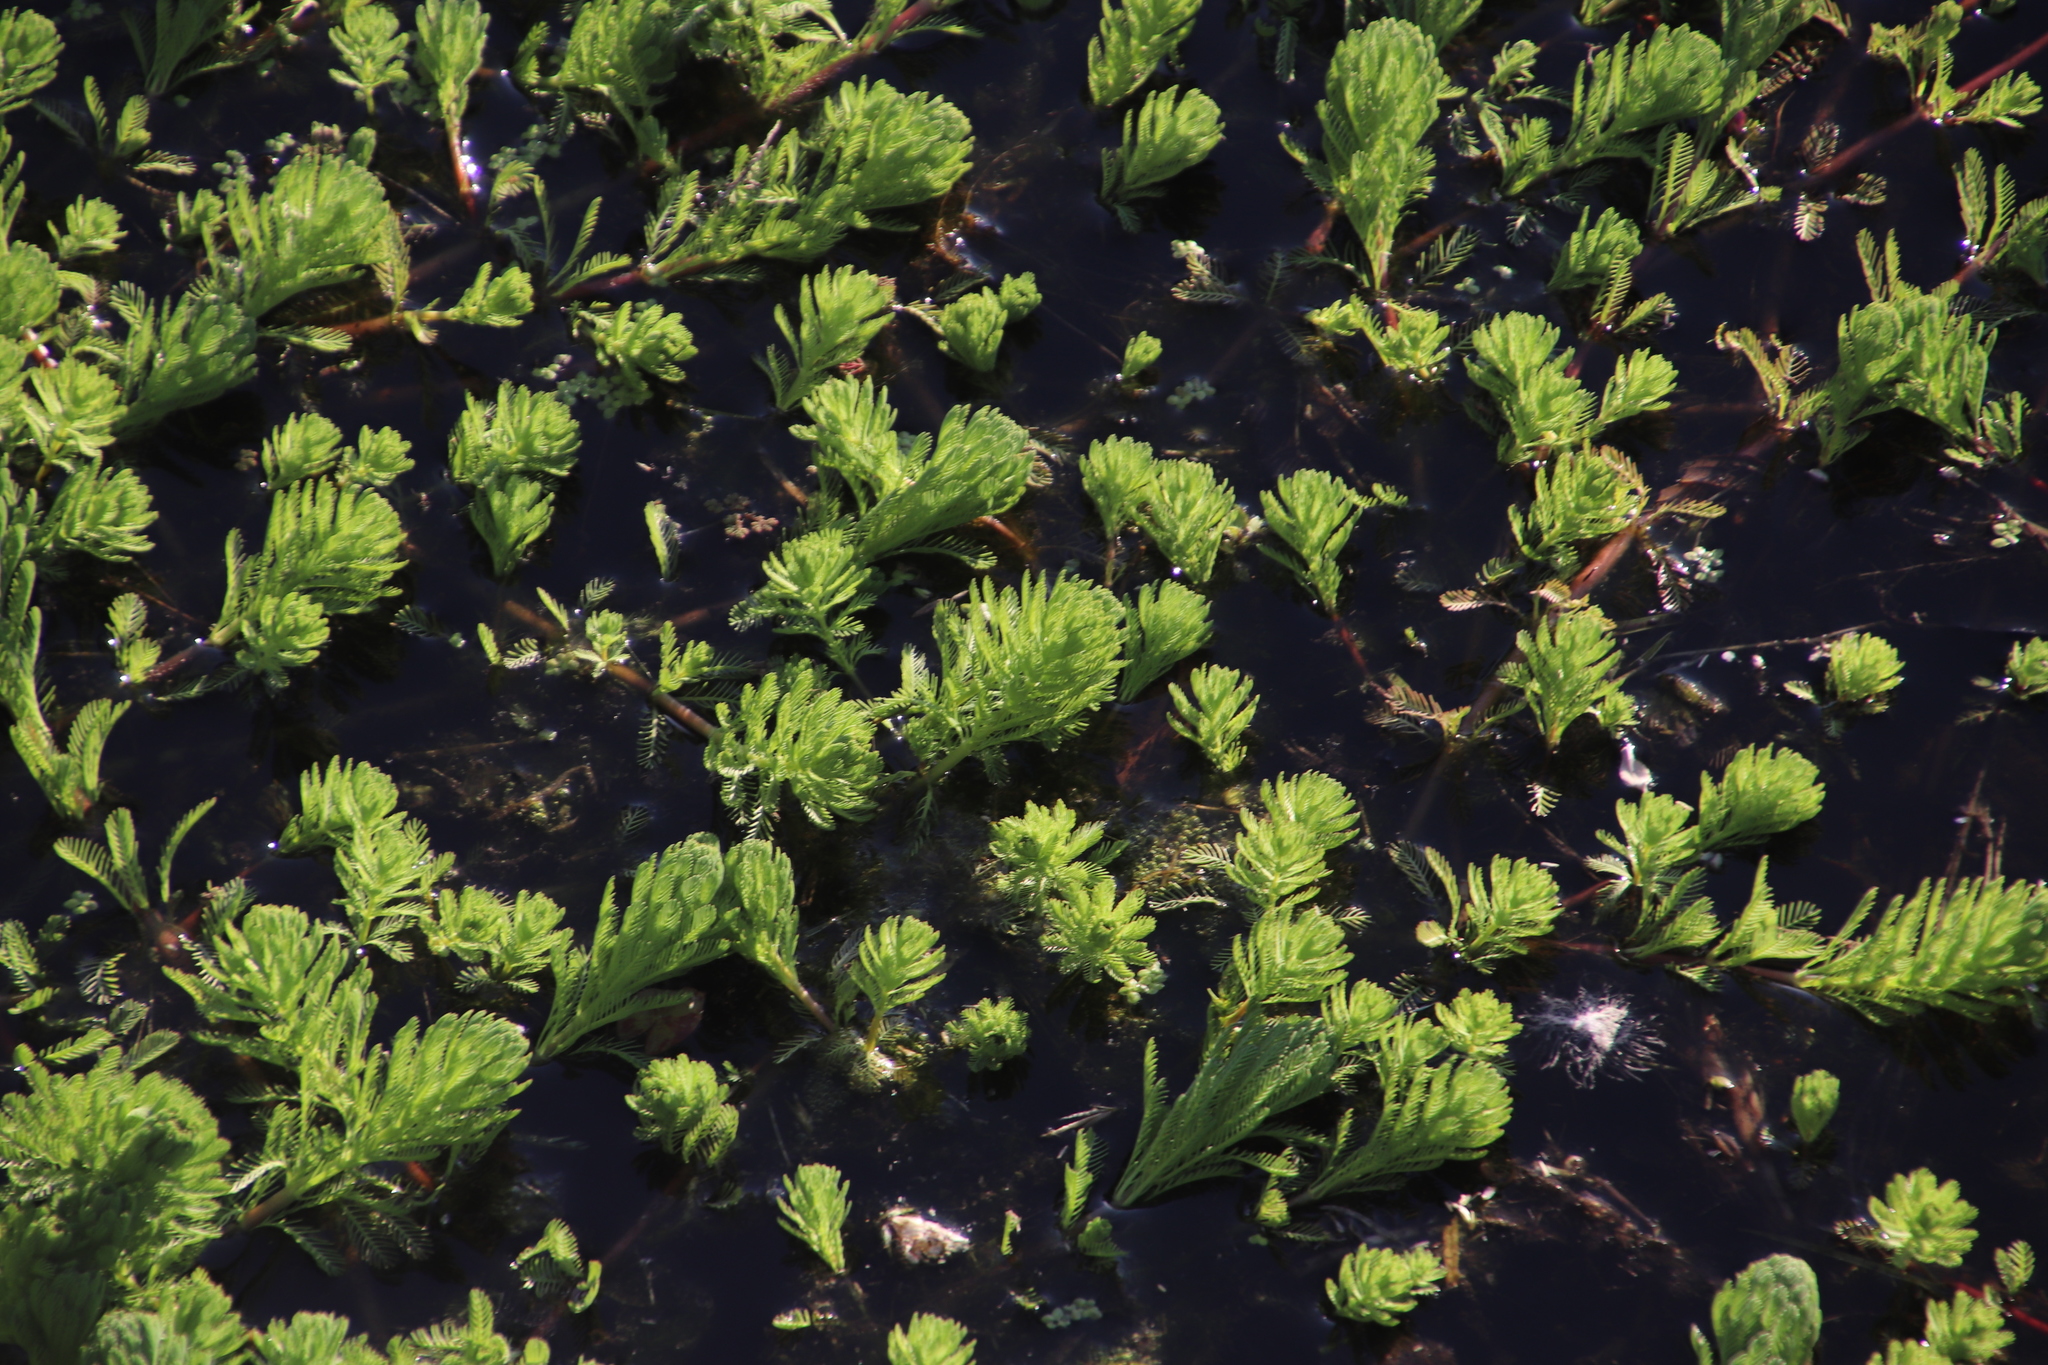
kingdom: Plantae
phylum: Tracheophyta
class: Magnoliopsida
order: Saxifragales
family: Haloragaceae
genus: Myriophyllum
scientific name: Myriophyllum aquaticum
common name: Parrot's feather
